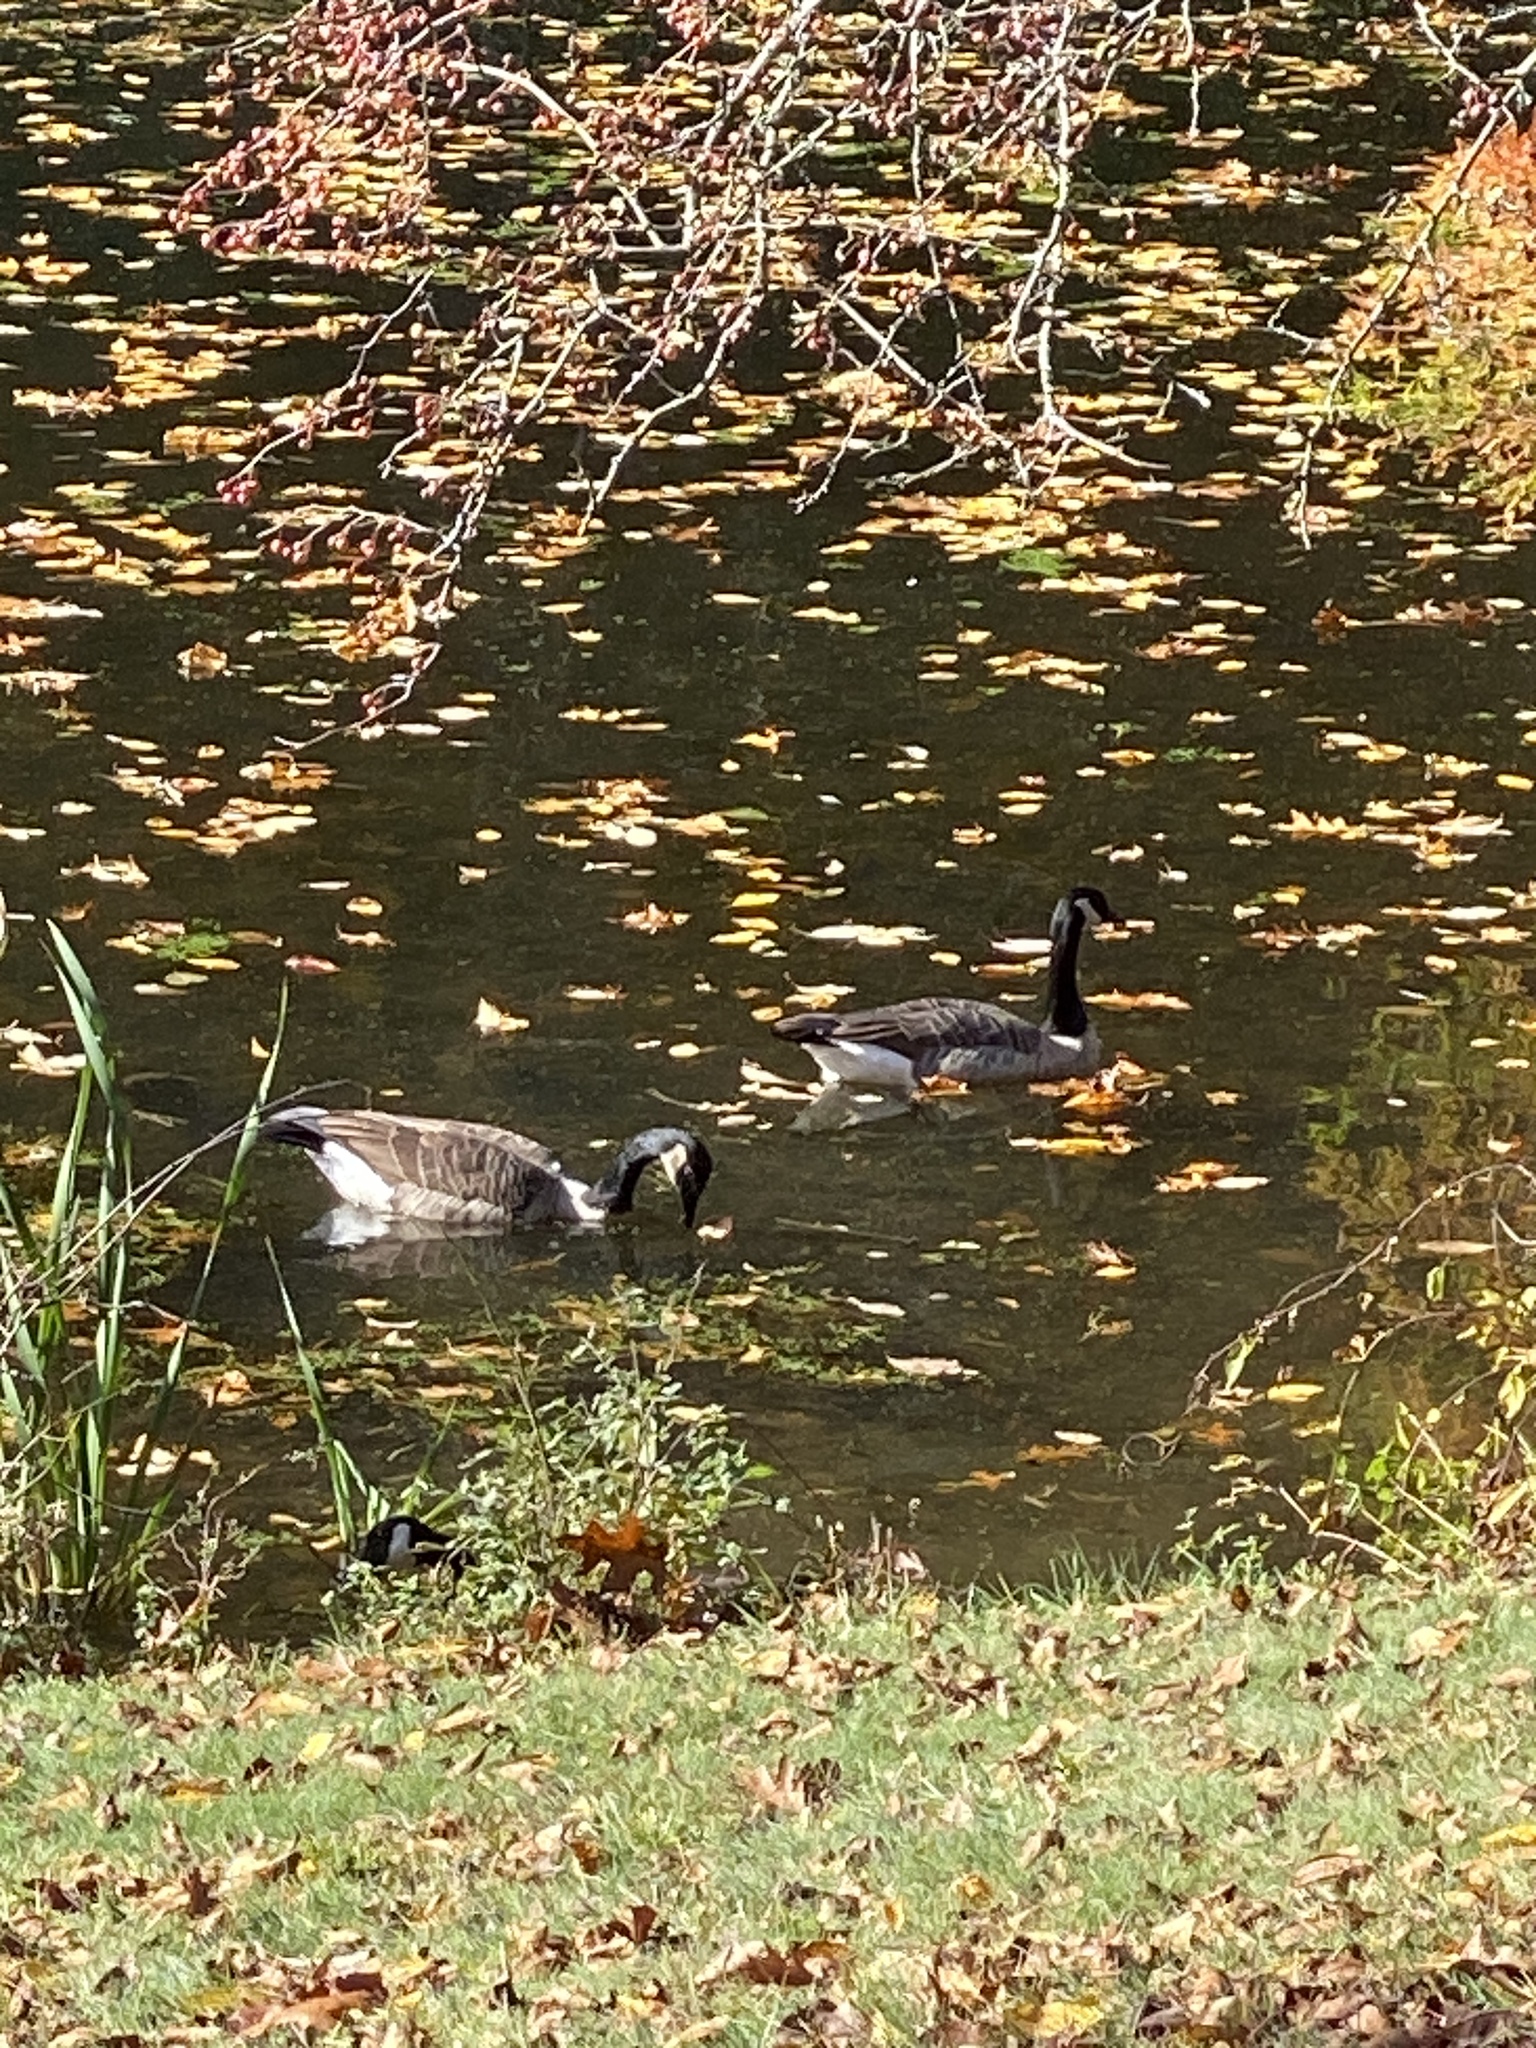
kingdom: Animalia
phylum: Chordata
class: Aves
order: Anseriformes
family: Anatidae
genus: Branta
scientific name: Branta canadensis
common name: Canada goose
